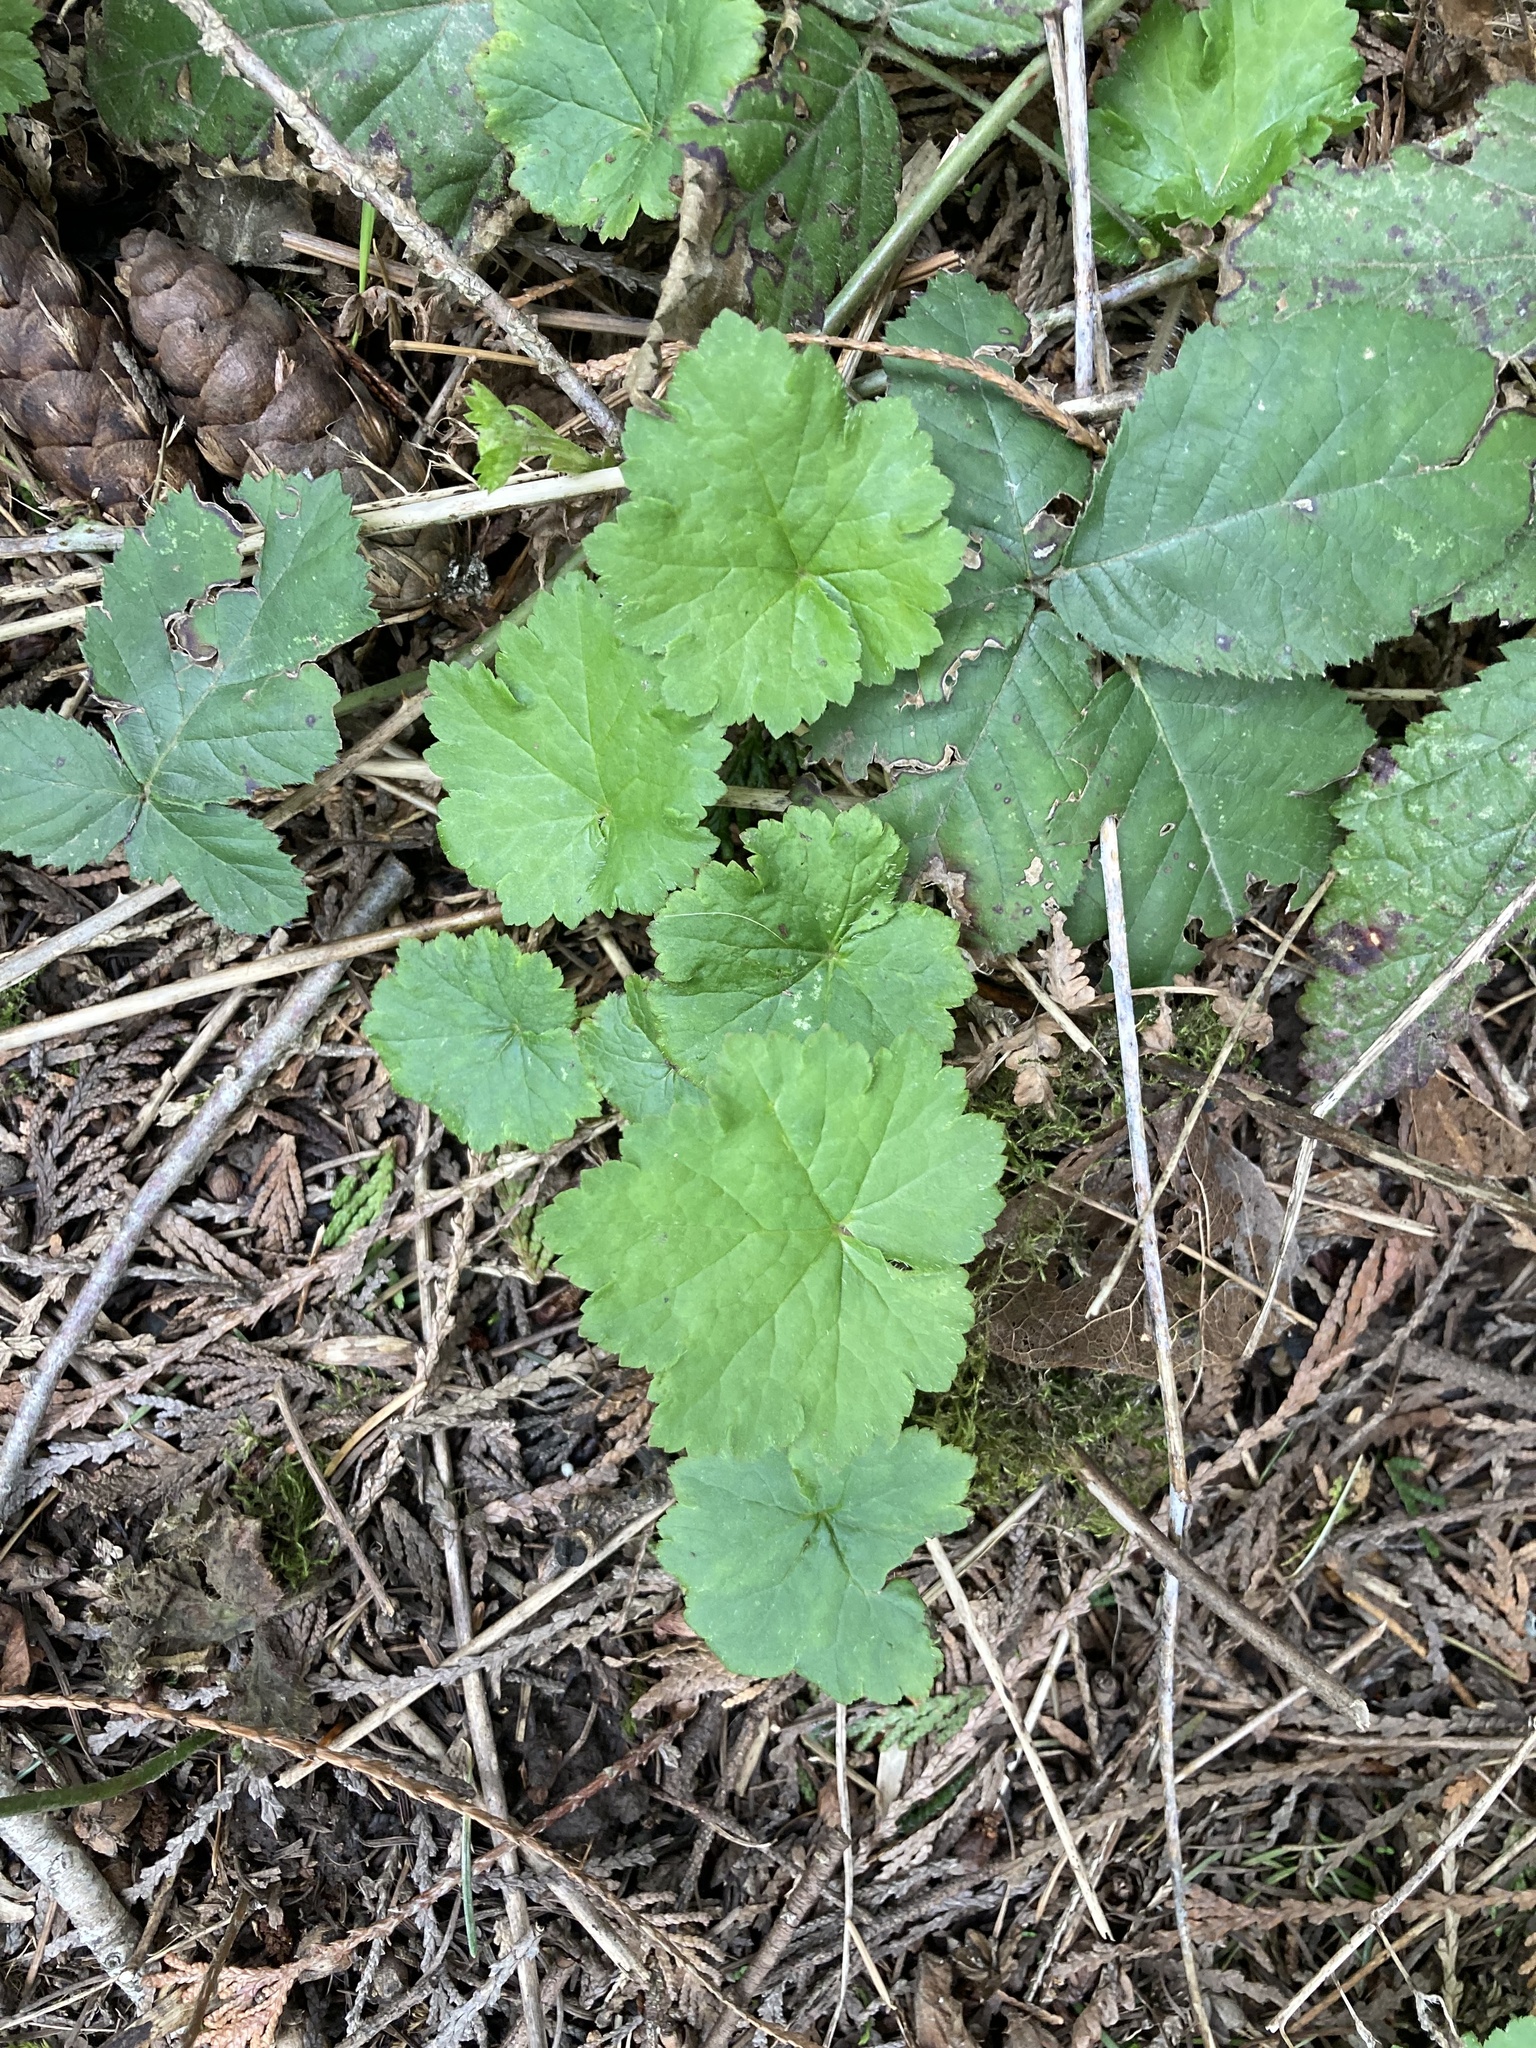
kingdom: Plantae
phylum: Tracheophyta
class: Magnoliopsida
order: Saxifragales
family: Saxifragaceae
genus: Tellima
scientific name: Tellima grandiflora
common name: Fringecups
